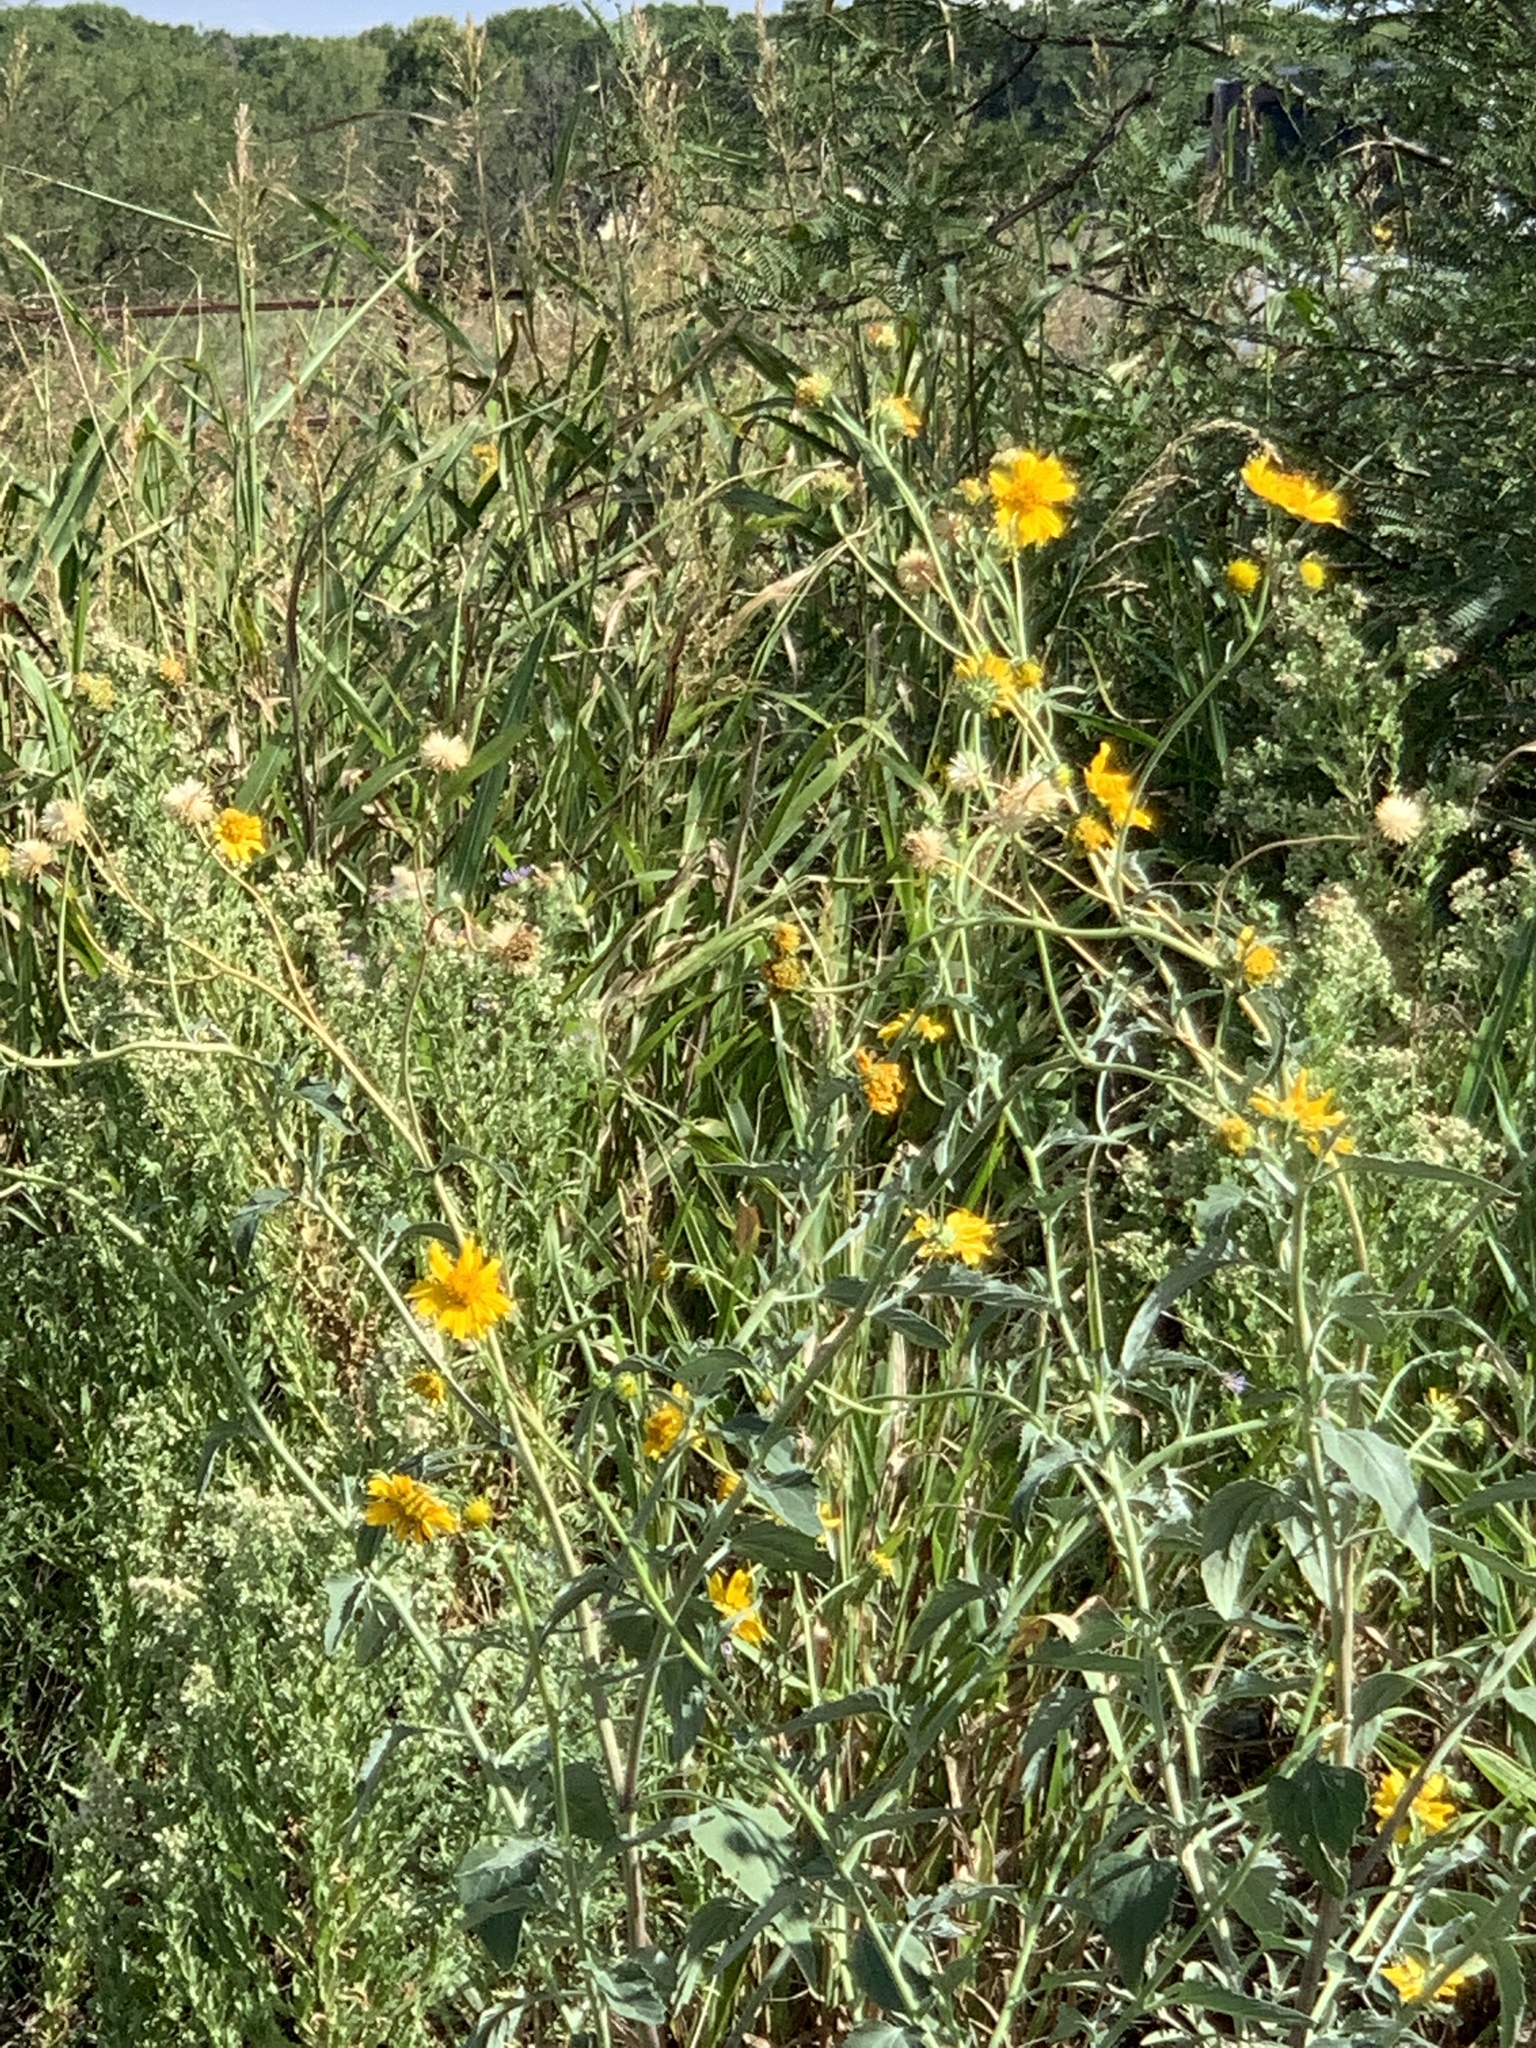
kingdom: Plantae
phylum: Tracheophyta
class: Magnoliopsida
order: Asterales
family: Asteraceae
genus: Heterotheca
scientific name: Heterotheca subaxillaris
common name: Camphorweed
